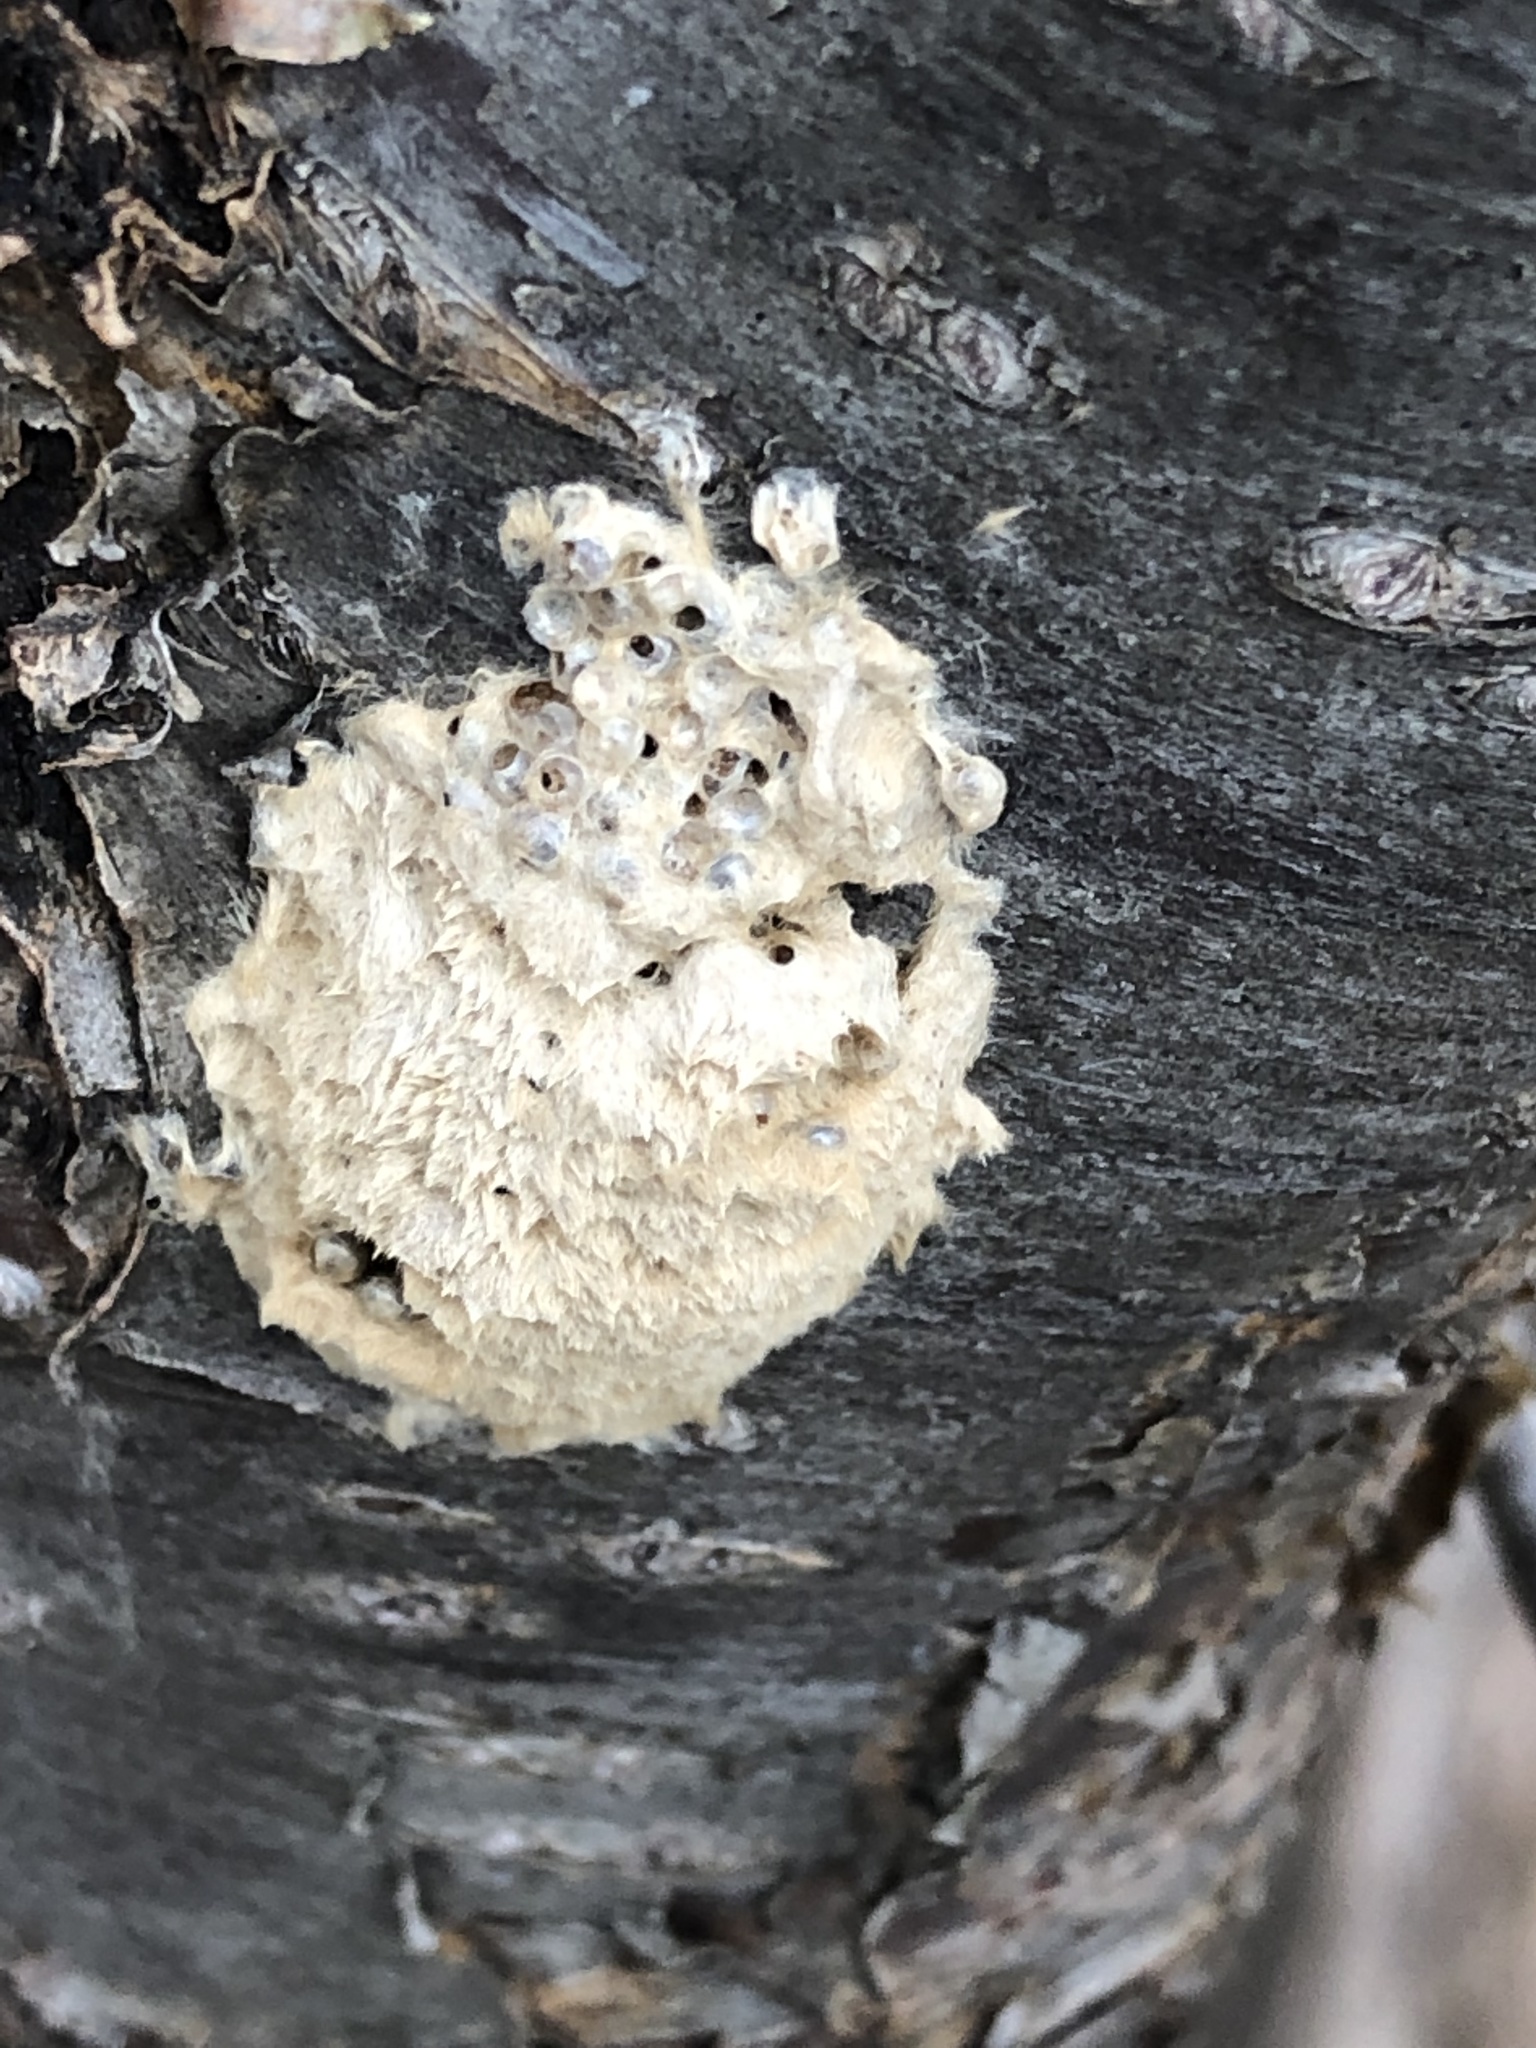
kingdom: Animalia
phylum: Arthropoda
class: Insecta
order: Lepidoptera
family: Erebidae
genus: Lymantria
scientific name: Lymantria dispar
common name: Gypsy moth
